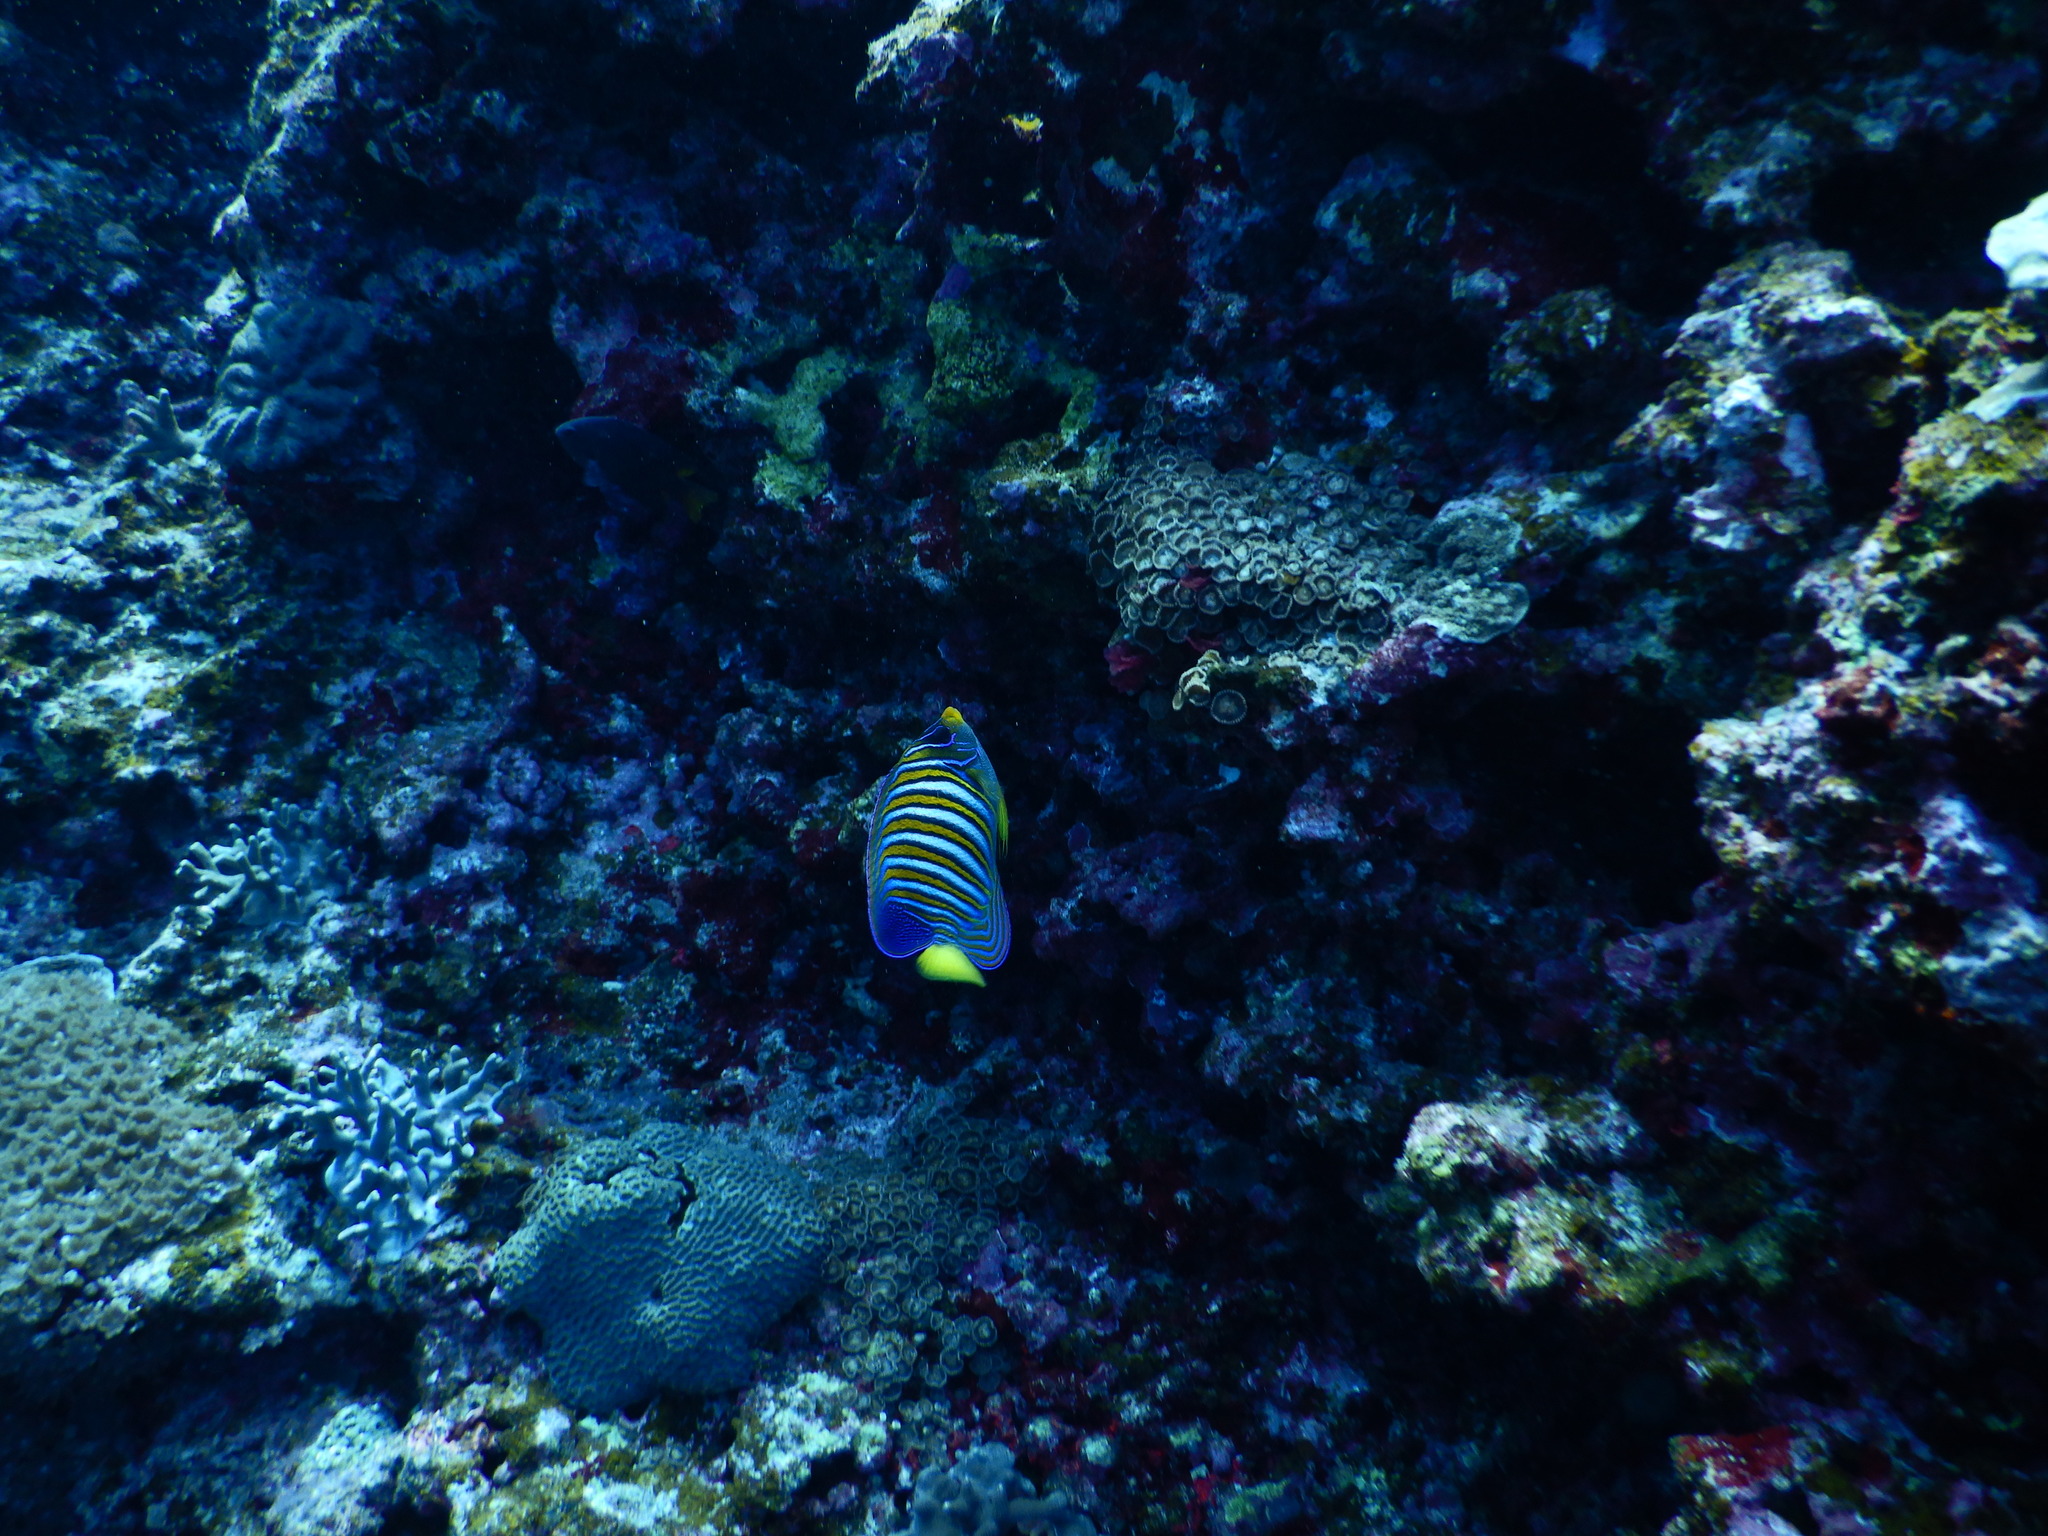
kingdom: Animalia
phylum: Chordata
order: Perciformes
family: Pomacanthidae
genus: Pygoplites
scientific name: Pygoplites diacanthus
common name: Regal angelfish
